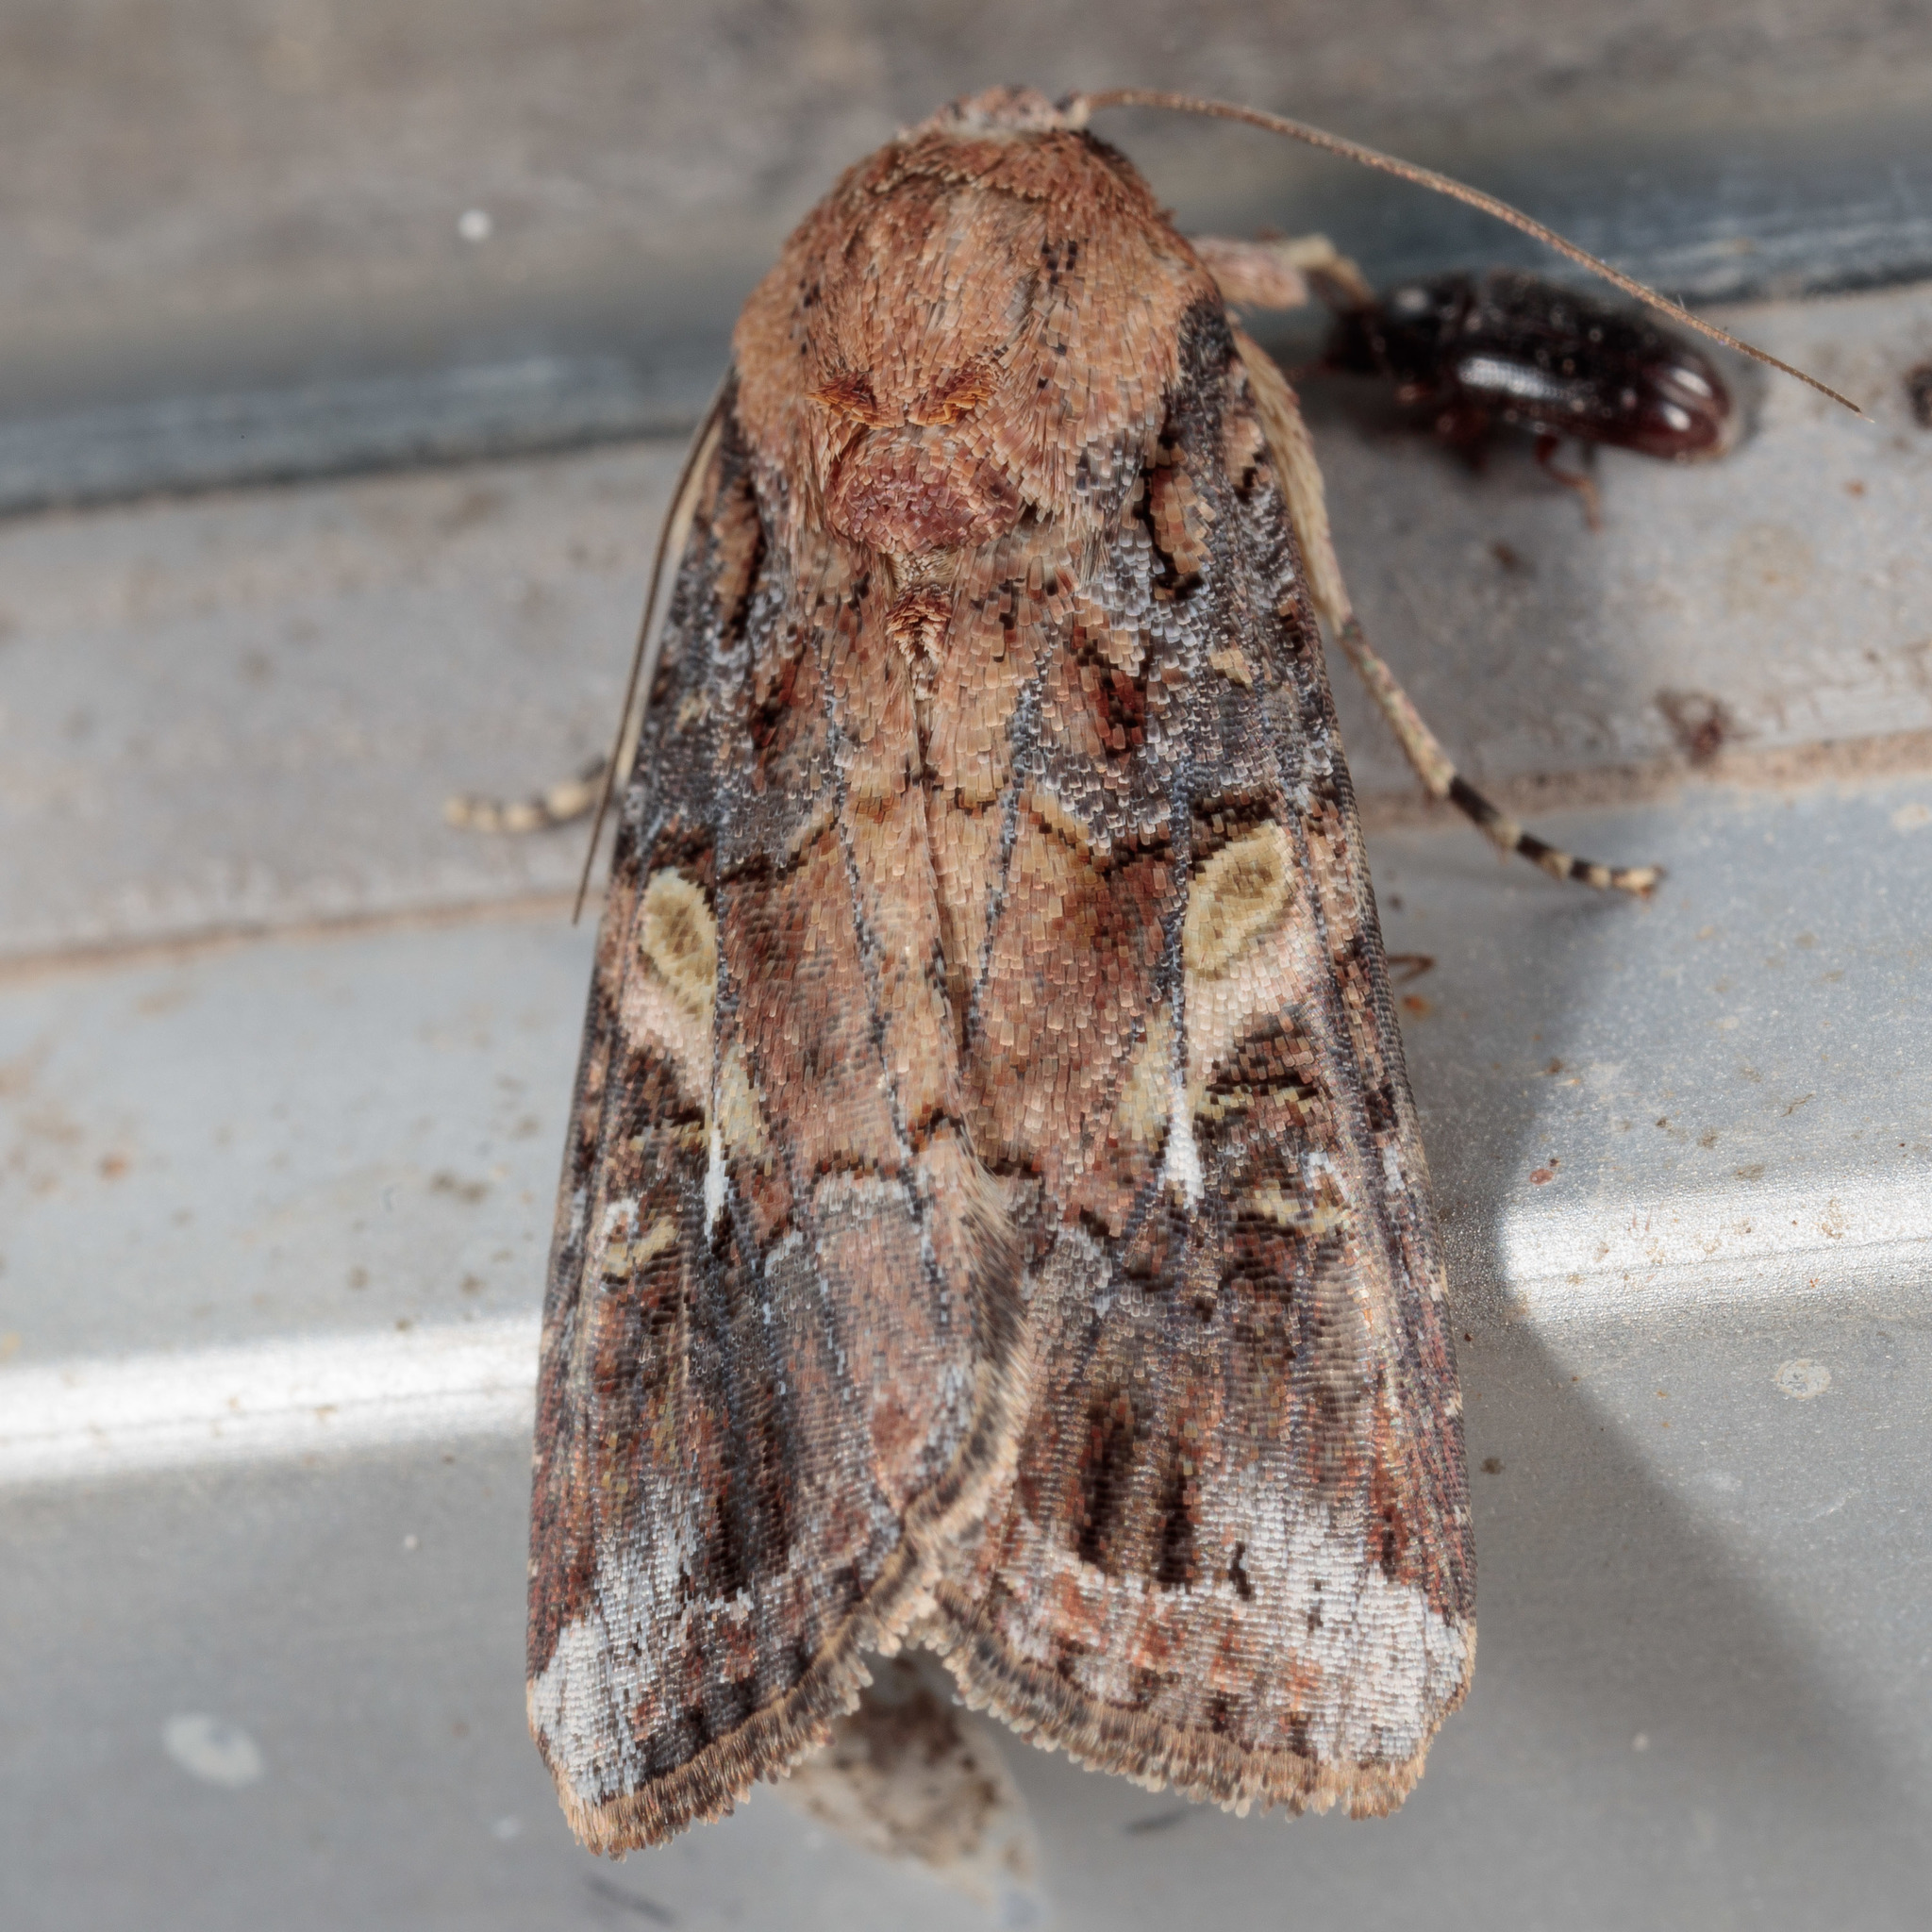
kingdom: Animalia
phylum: Arthropoda
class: Insecta
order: Lepidoptera
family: Noctuidae
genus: Spodoptera
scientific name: Spodoptera frugiperda
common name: Fall armyworm
